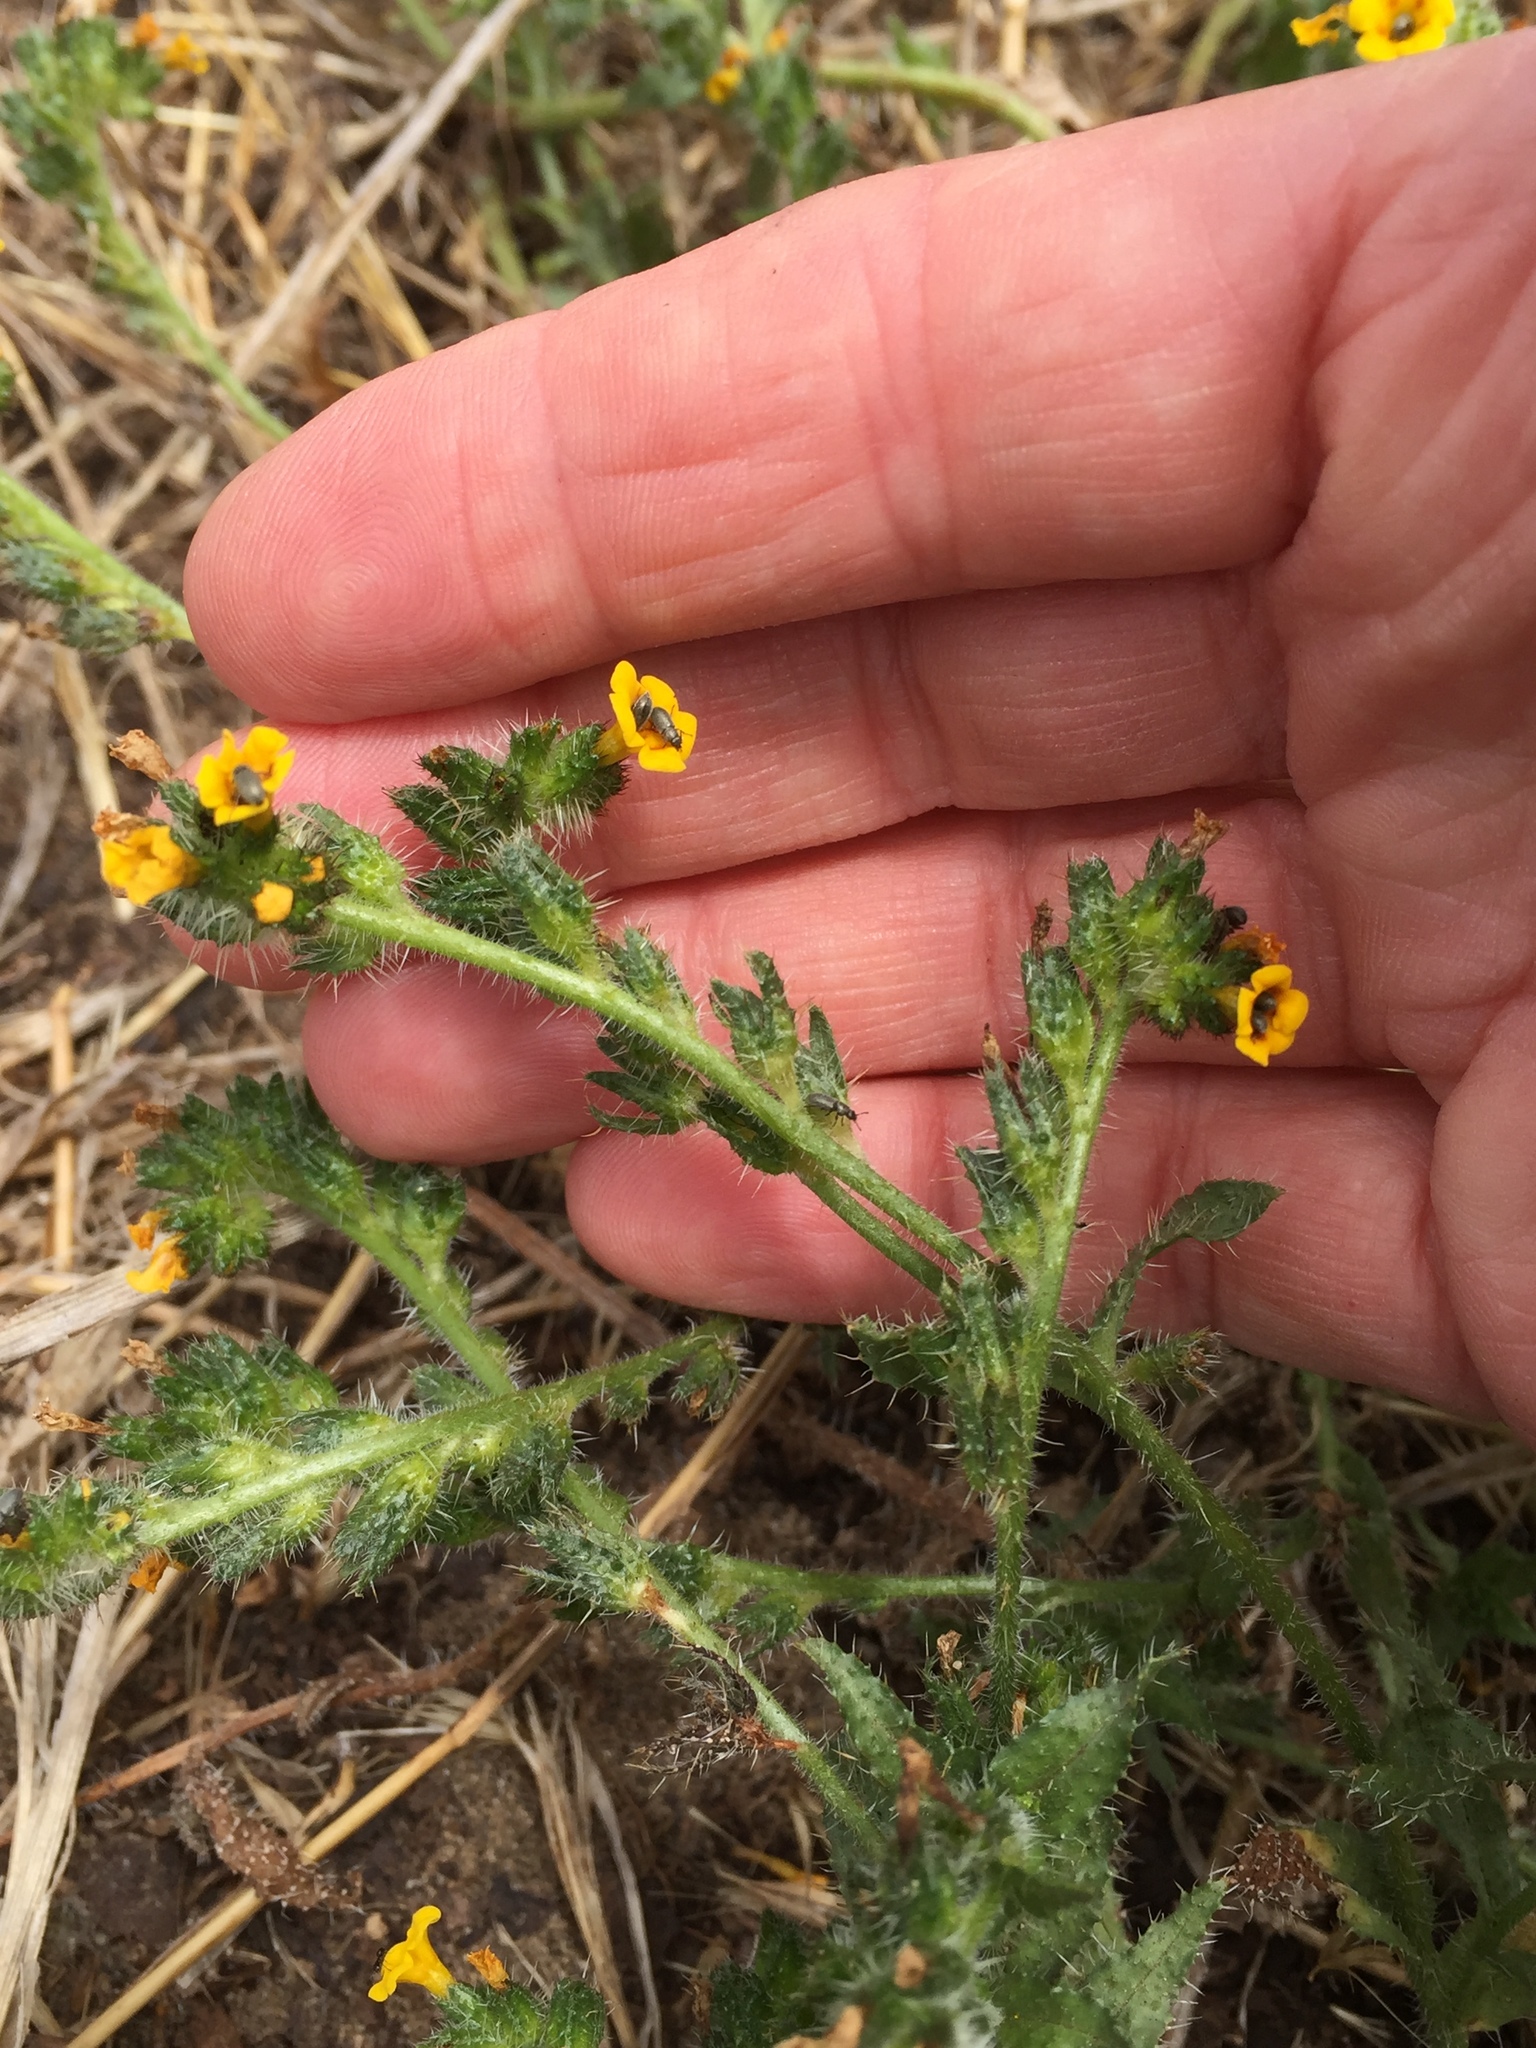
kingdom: Plantae
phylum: Tracheophyta
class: Magnoliopsida
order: Boraginales
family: Boraginaceae
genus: Amsinckia
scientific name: Amsinckia spectabilis
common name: Seaside fiddleneck
